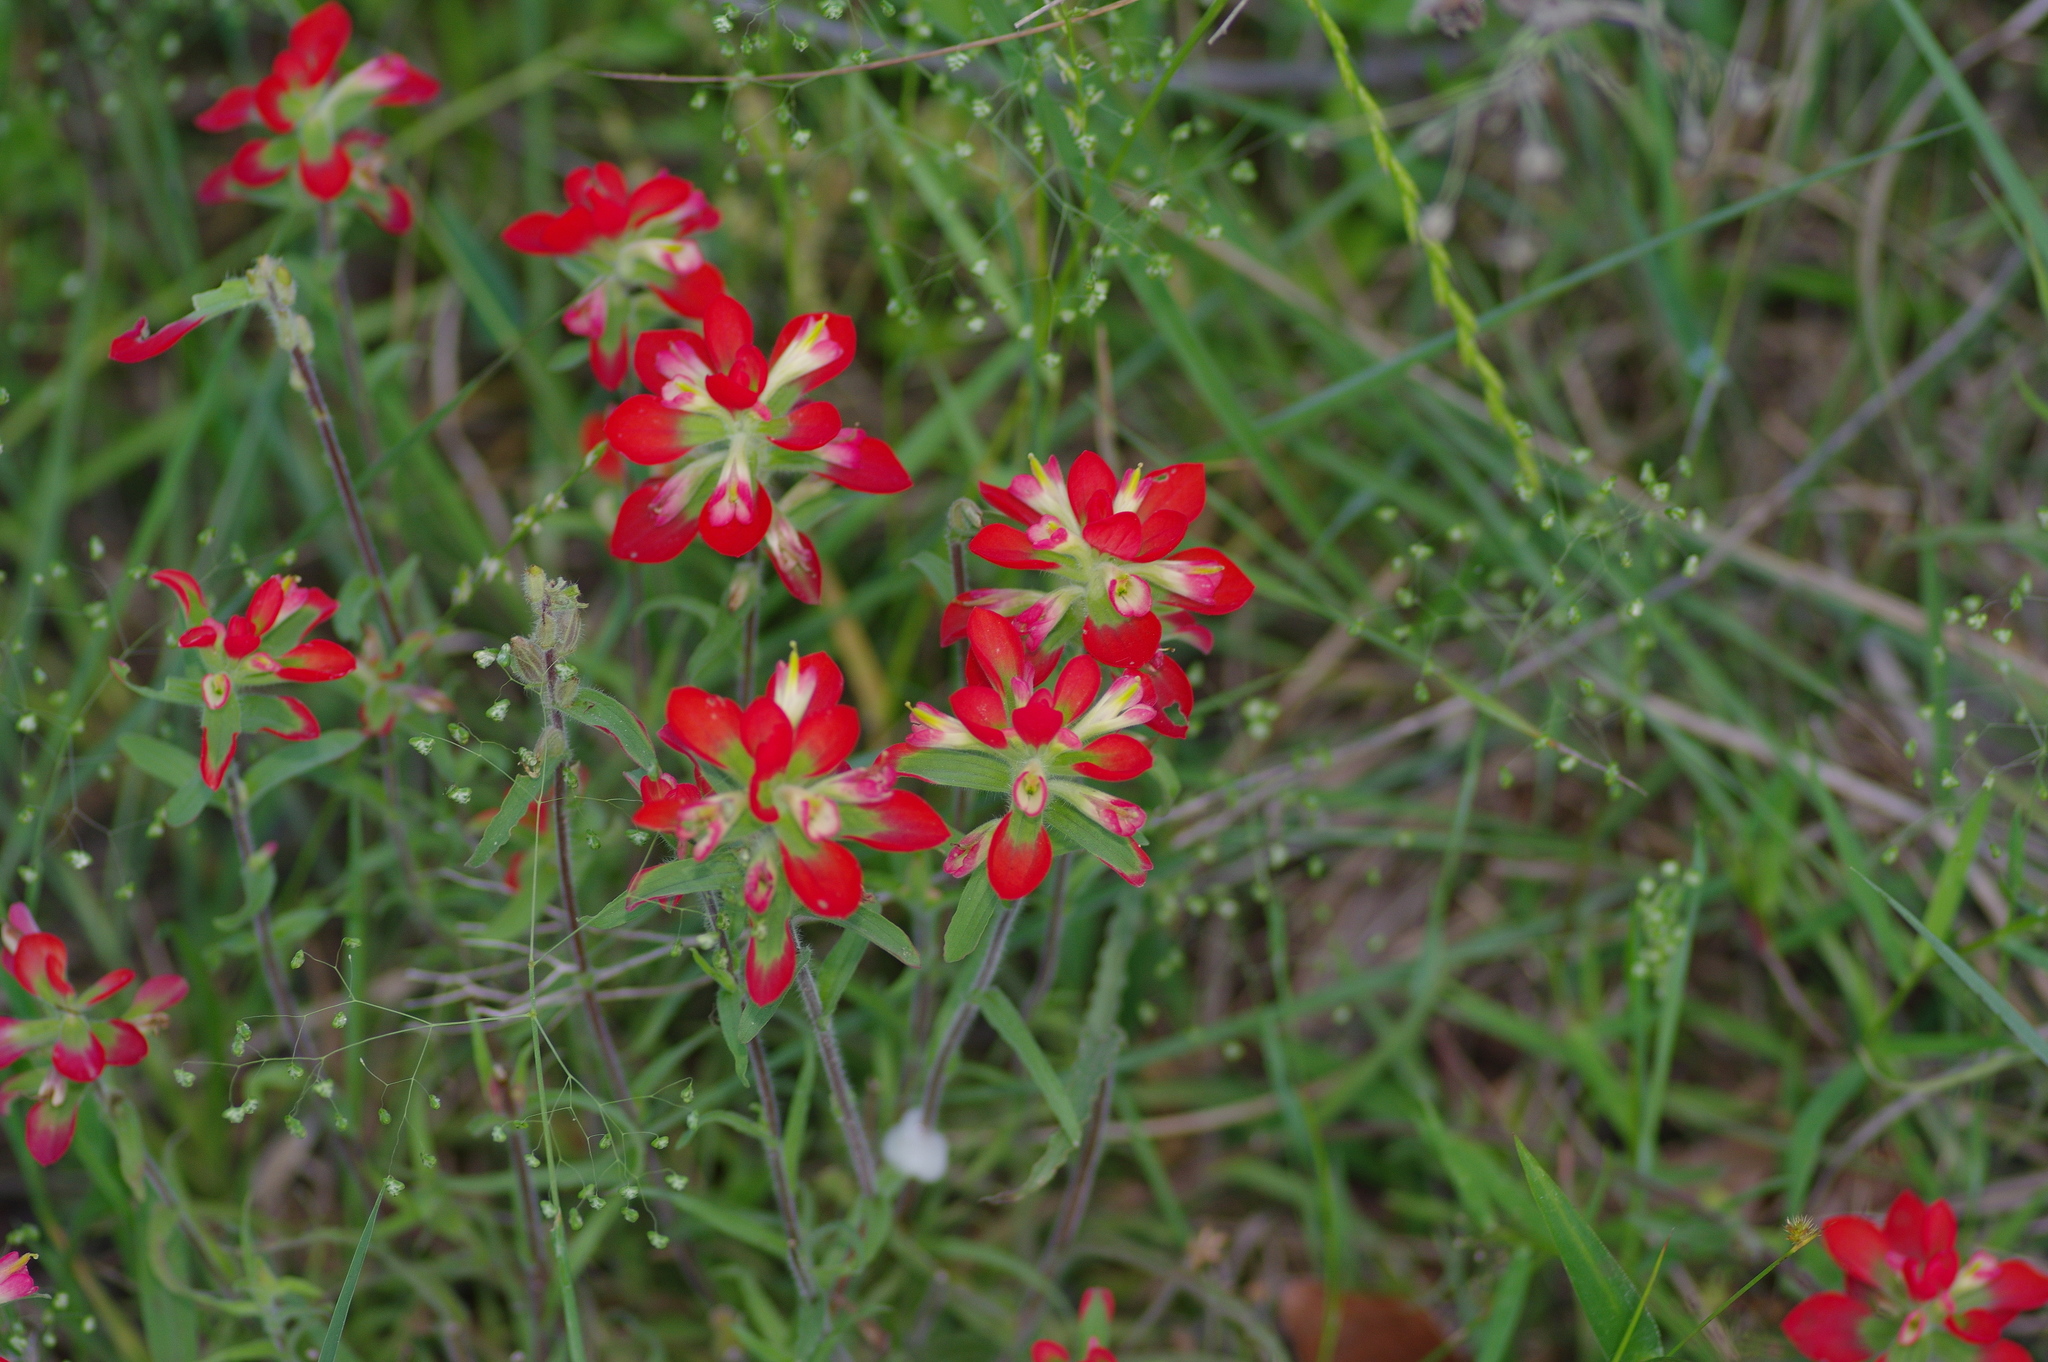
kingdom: Plantae
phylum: Tracheophyta
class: Magnoliopsida
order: Lamiales
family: Orobanchaceae
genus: Castilleja
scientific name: Castilleja indivisa
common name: Texas paintbrush
